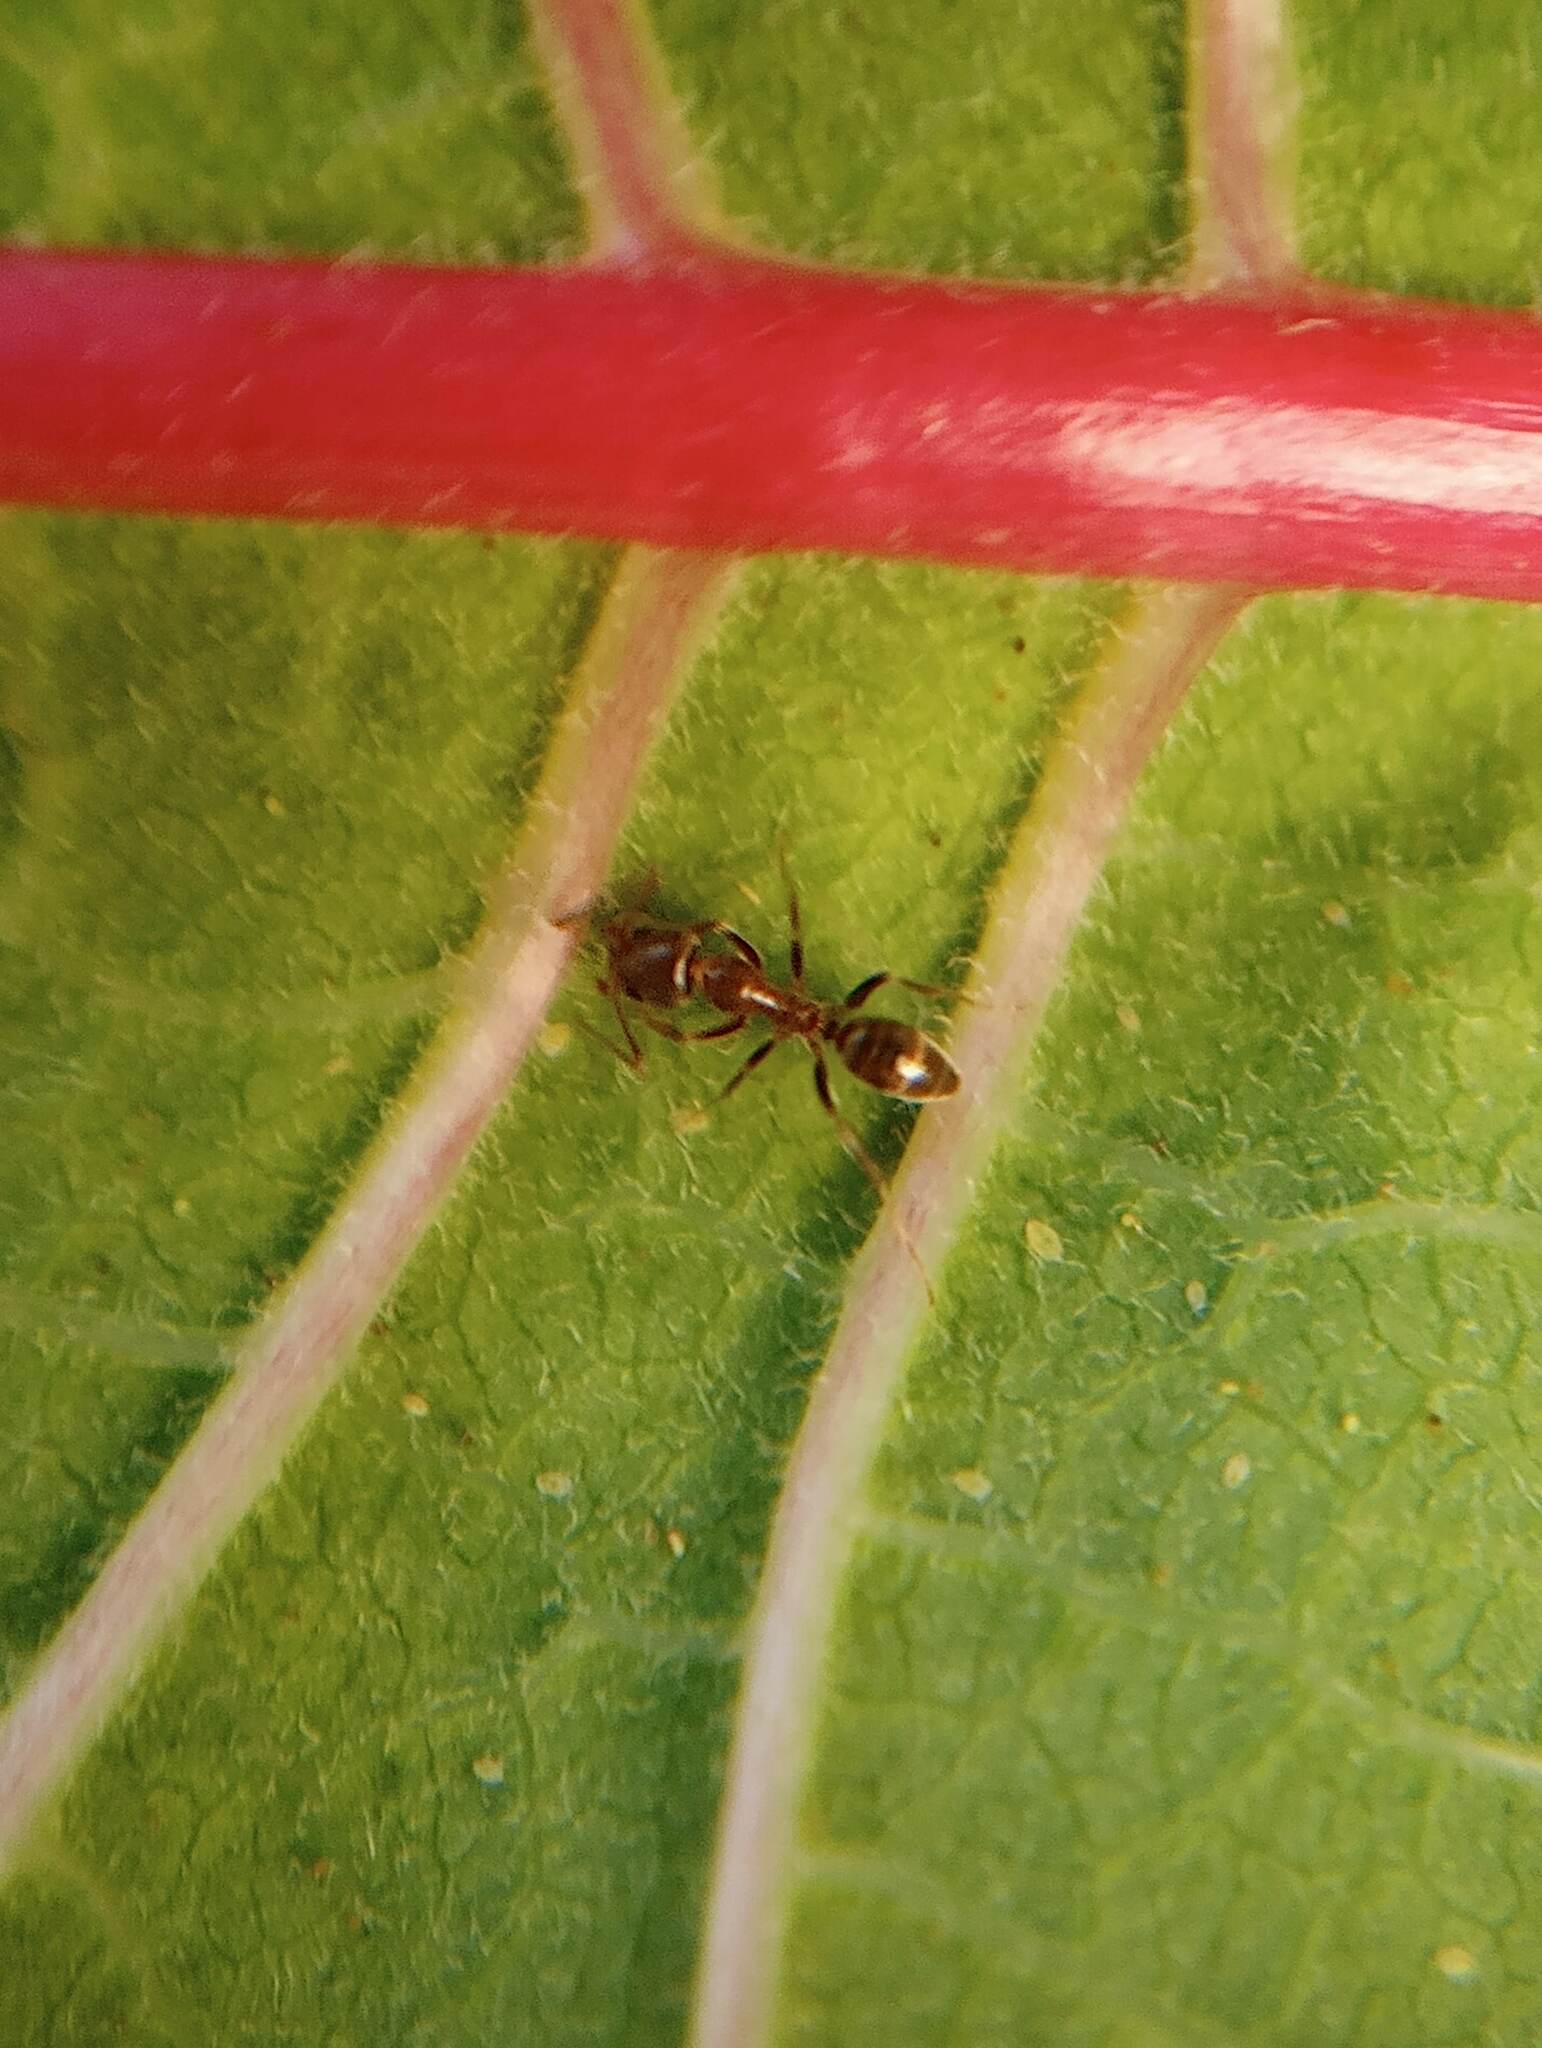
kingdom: Animalia
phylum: Arthropoda
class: Insecta
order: Hymenoptera
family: Formicidae
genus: Linepithema
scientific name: Linepithema humile
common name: Argentine ant
